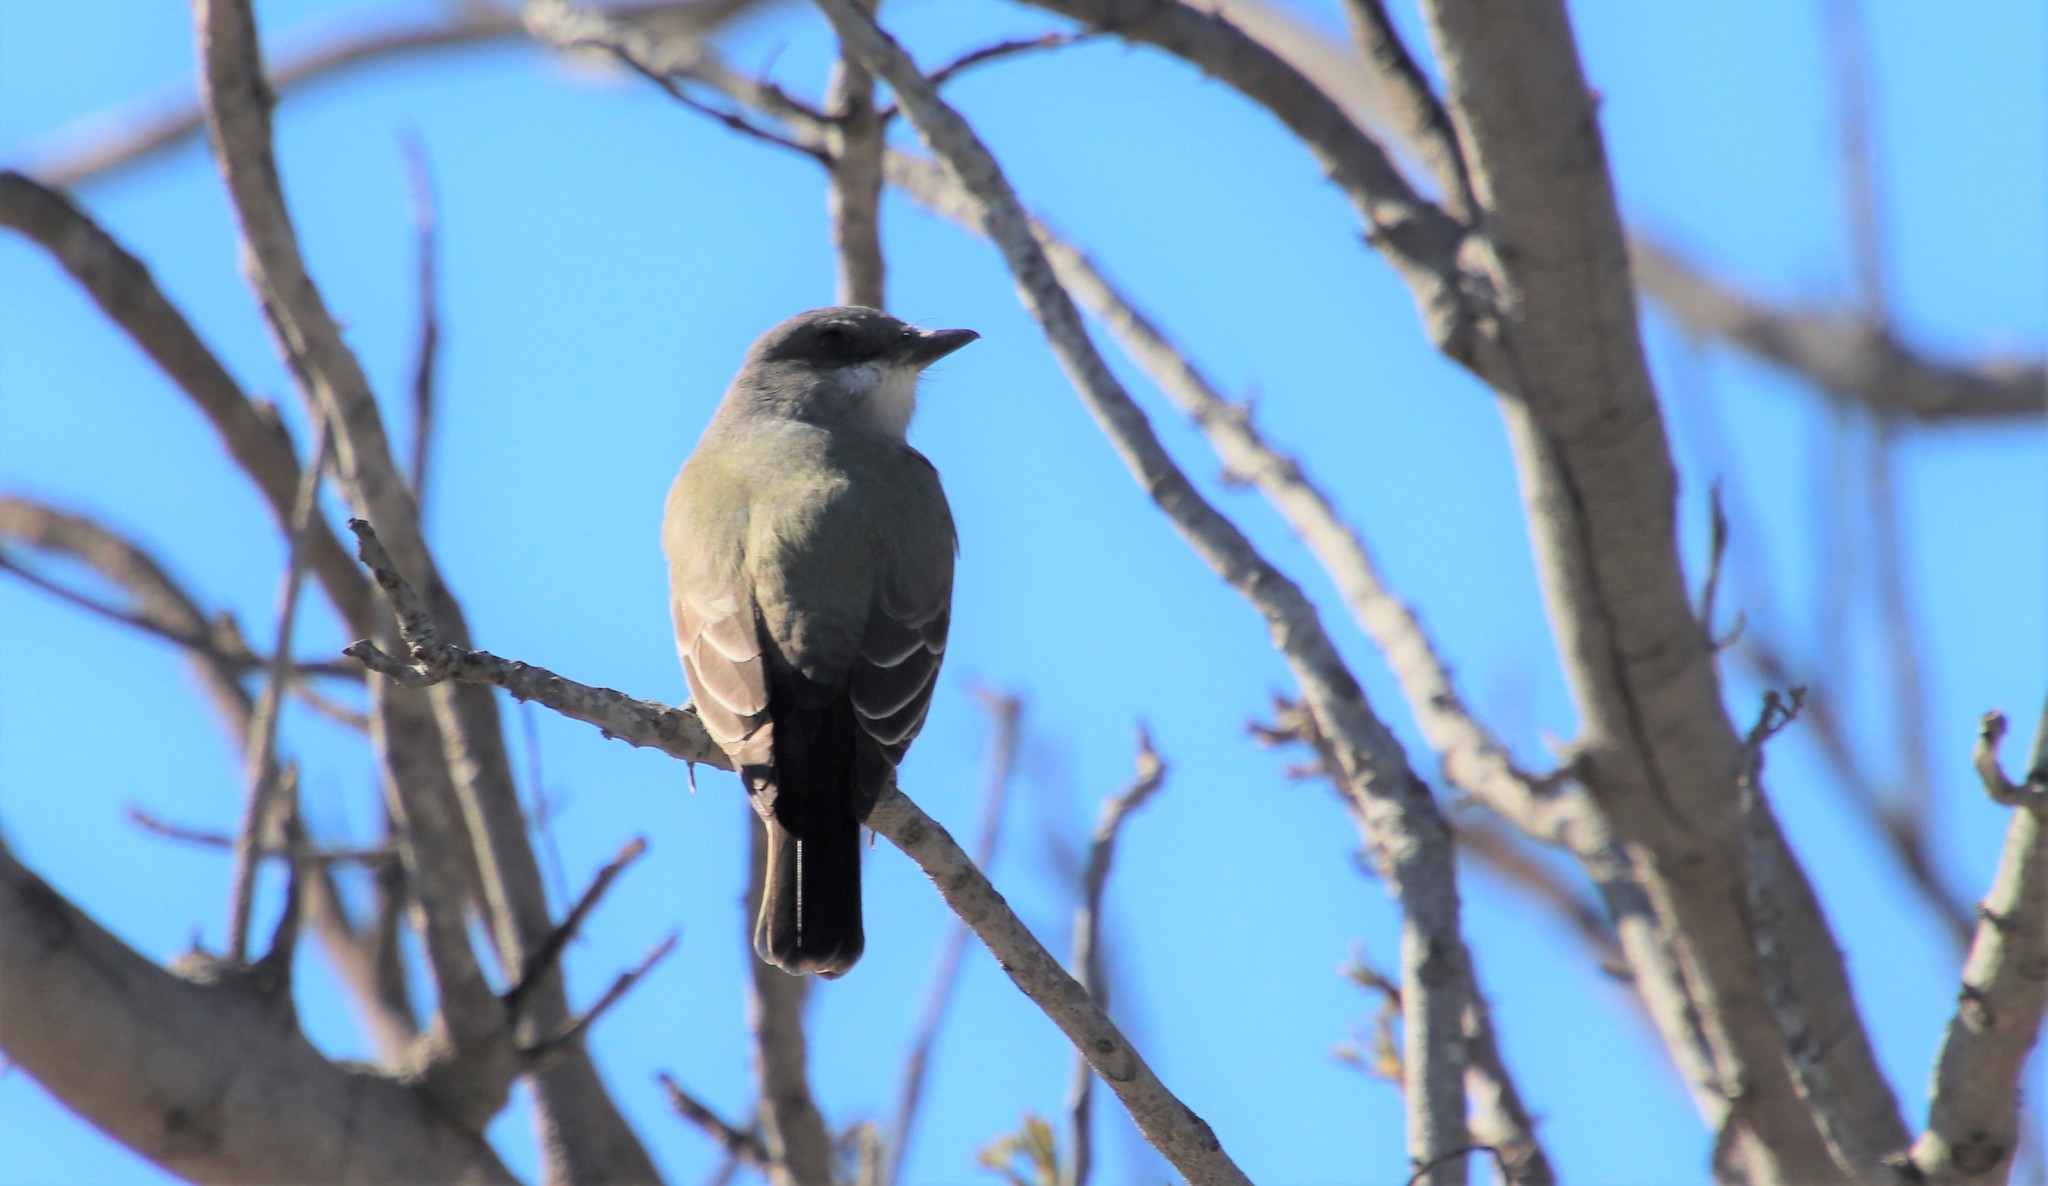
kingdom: Animalia
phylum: Chordata
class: Aves
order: Passeriformes
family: Tyrannidae
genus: Tyrannus
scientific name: Tyrannus vociferans
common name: Cassin's kingbird
